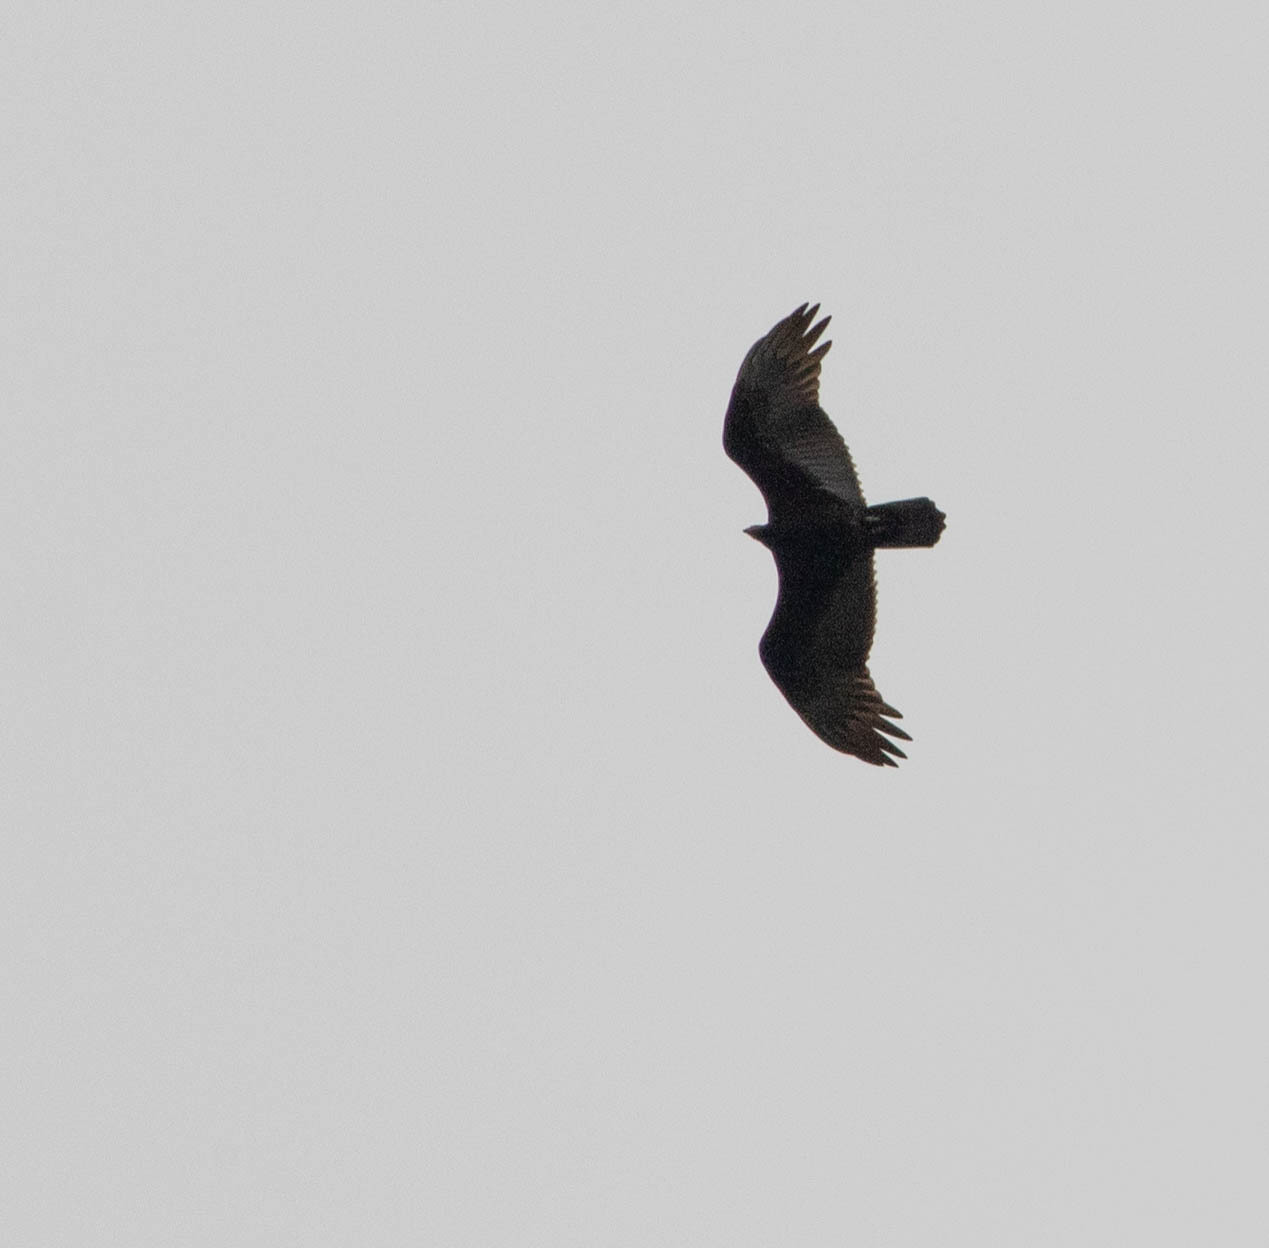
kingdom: Animalia
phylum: Chordata
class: Aves
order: Accipitriformes
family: Cathartidae
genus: Cathartes
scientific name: Cathartes aura
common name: Turkey vulture
